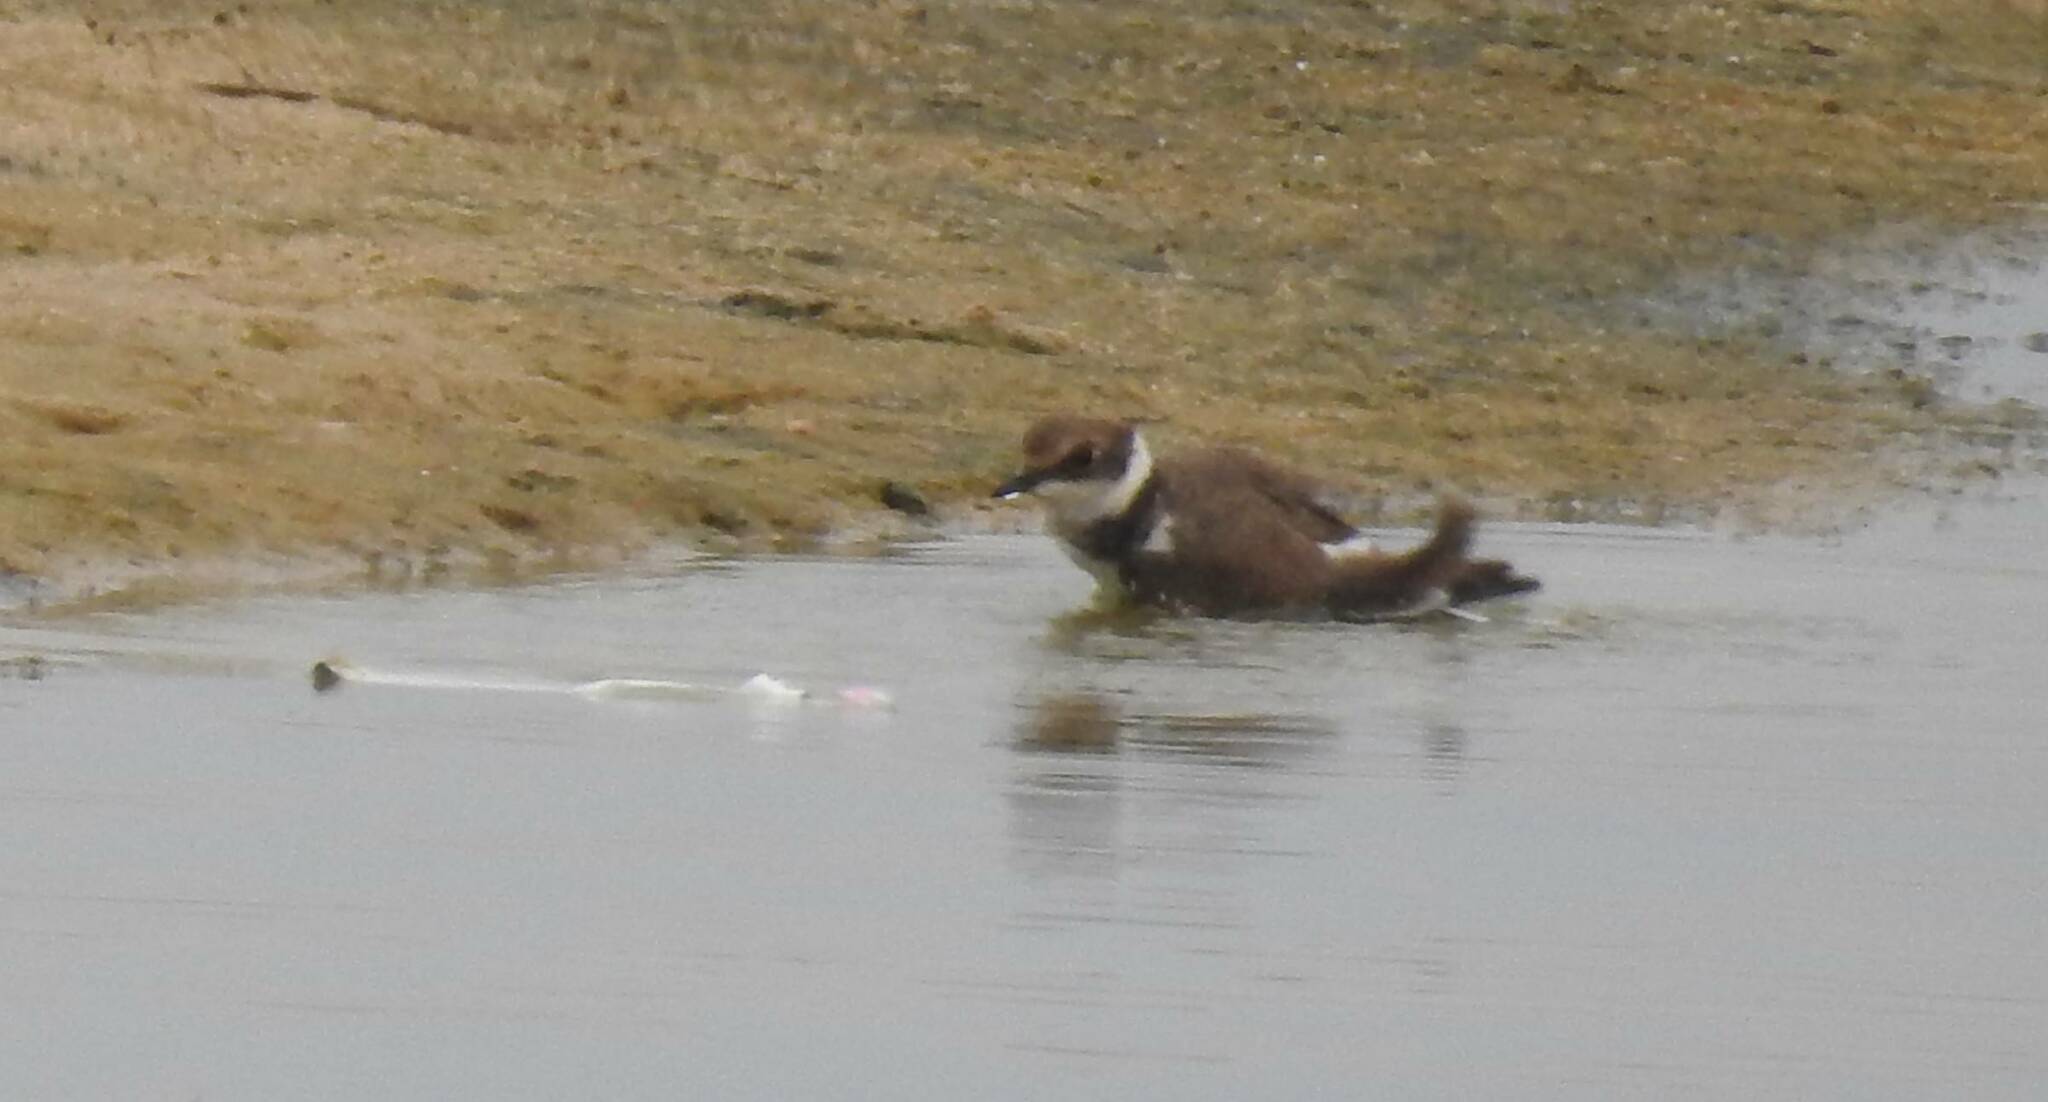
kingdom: Animalia
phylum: Chordata
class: Aves
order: Charadriiformes
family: Charadriidae
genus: Charadrius
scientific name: Charadrius dubius
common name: Little ringed plover
